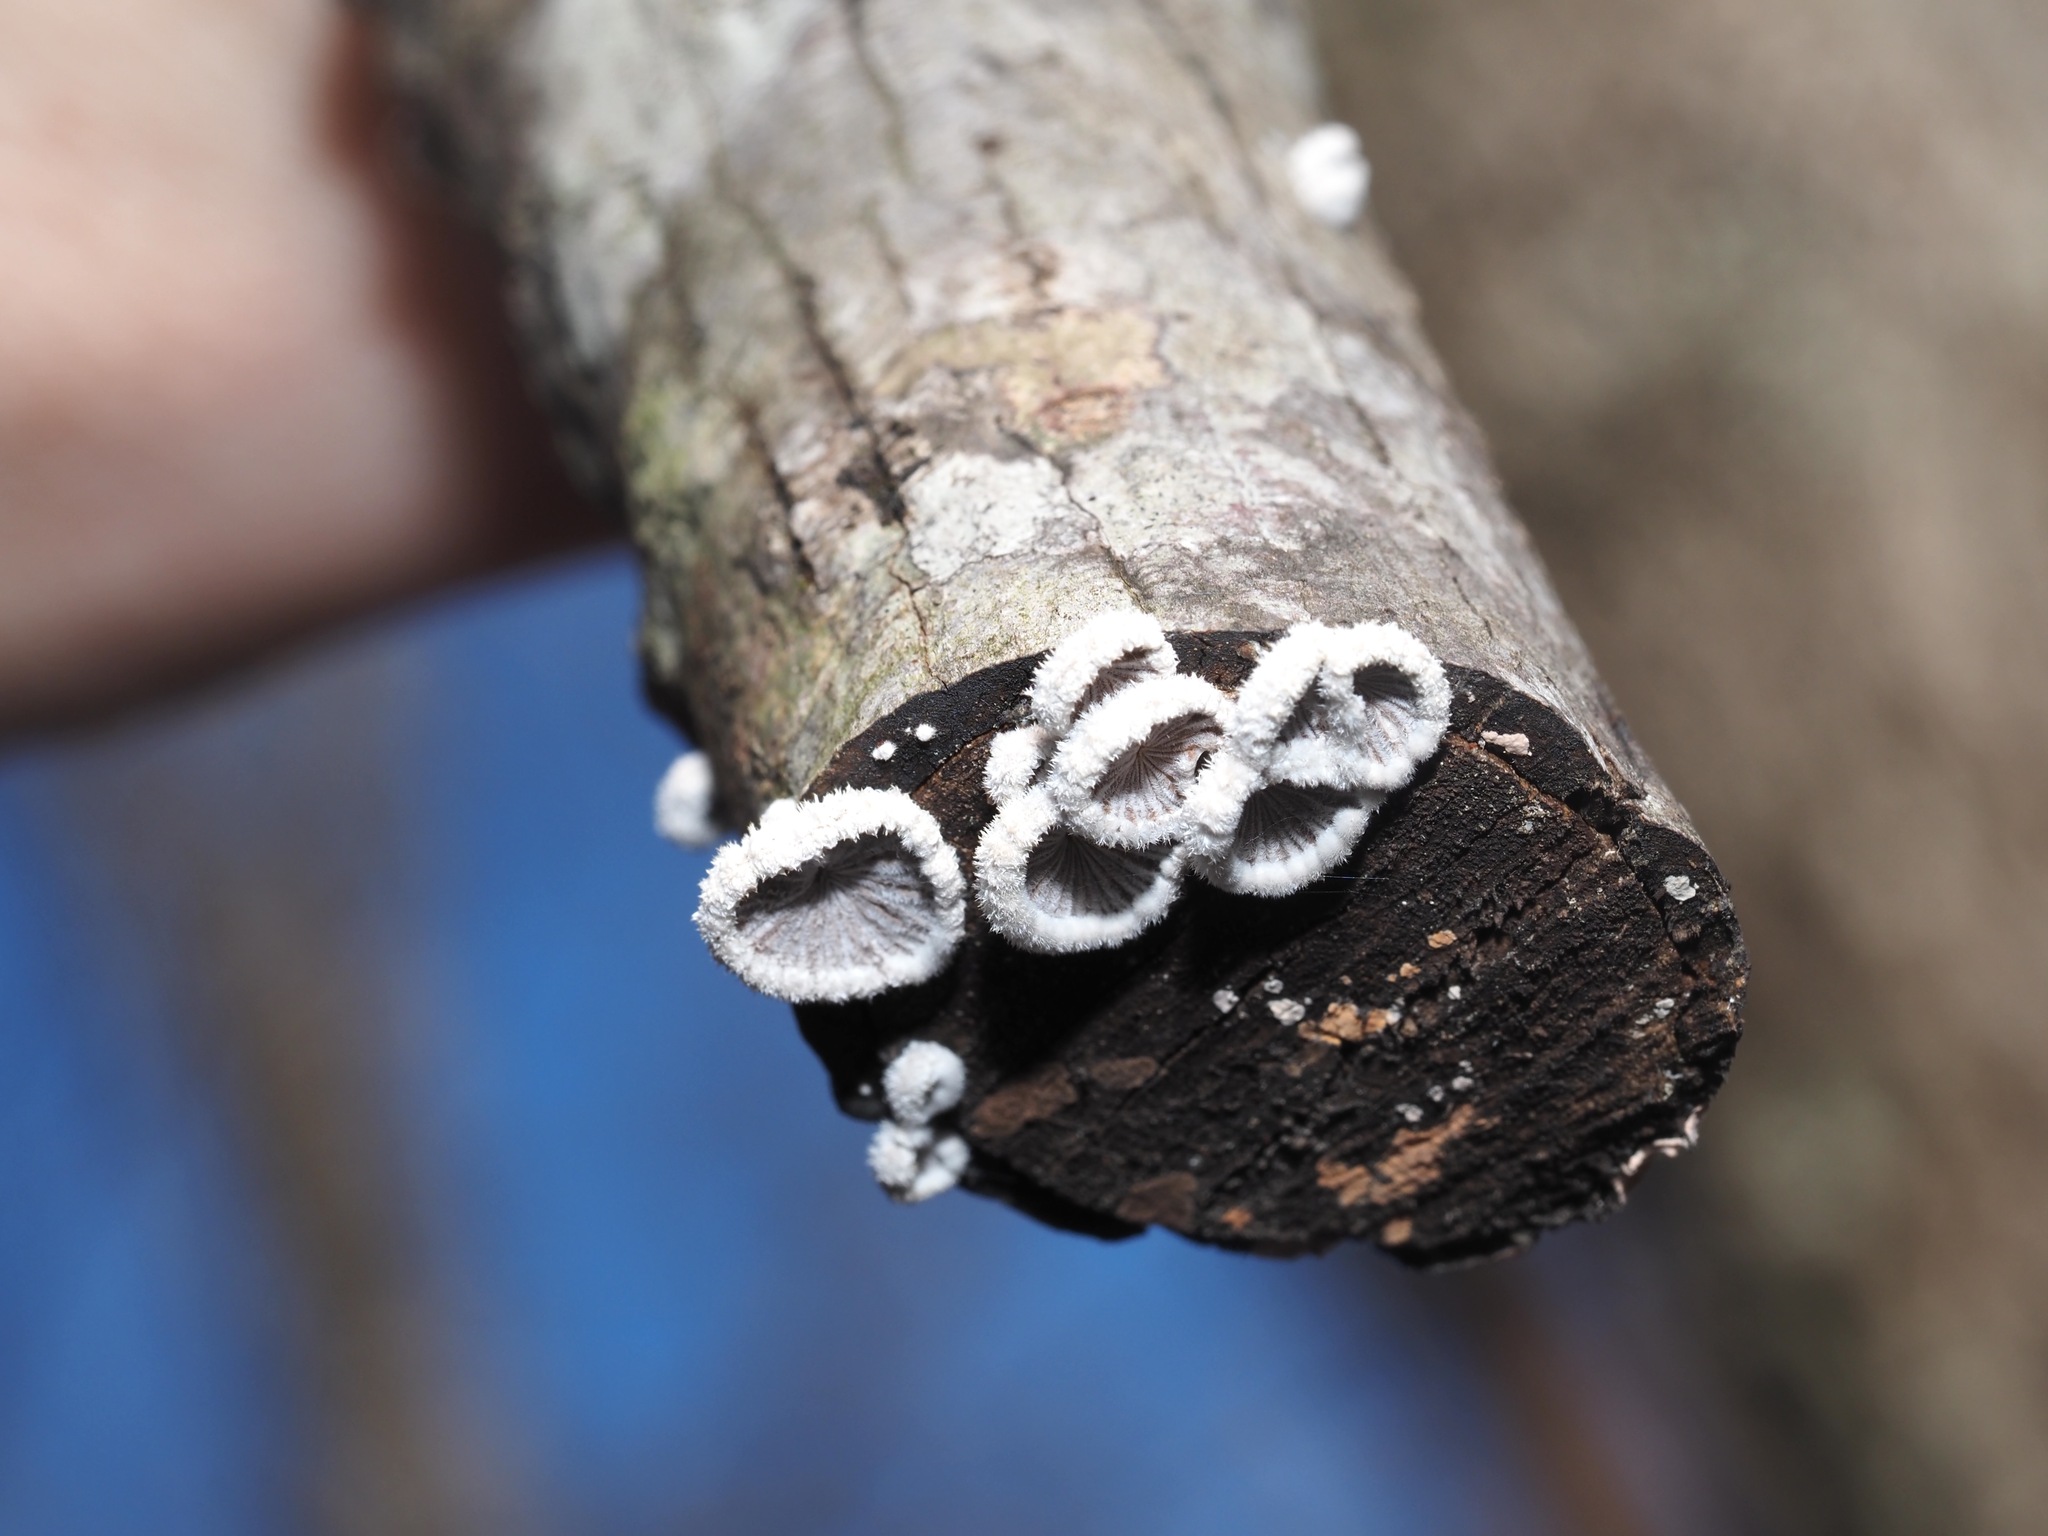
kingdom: Fungi
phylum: Basidiomycota
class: Agaricomycetes
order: Agaricales
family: Schizophyllaceae
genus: Schizophyllum
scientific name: Schizophyllum commune
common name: Common porecrust
